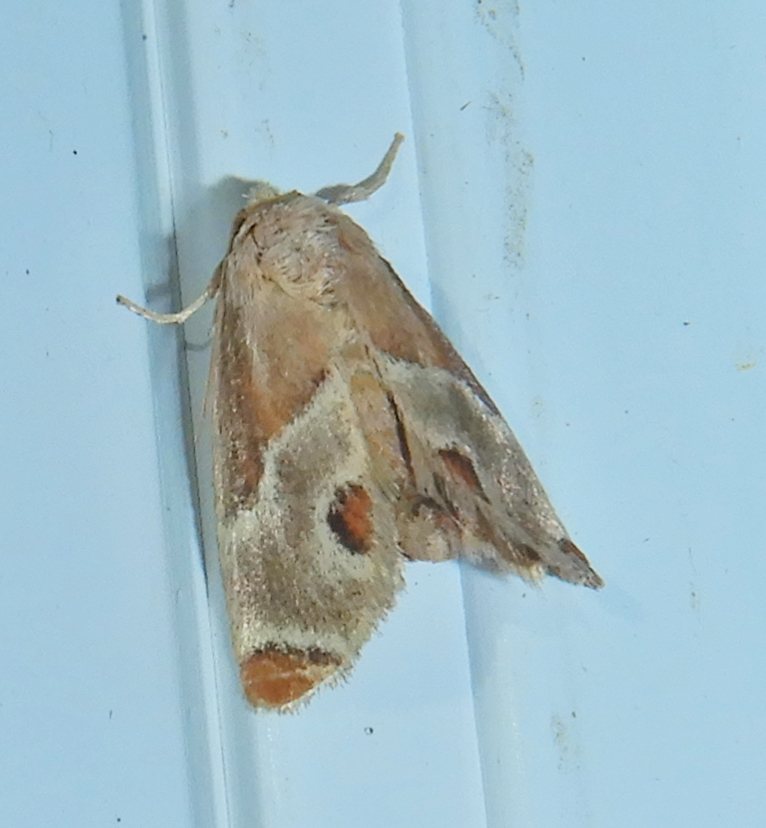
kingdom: Animalia
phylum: Arthropoda
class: Insecta
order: Lepidoptera
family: Limacodidae
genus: Apoda
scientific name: Apoda biguttata
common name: Shagreened slug moth
